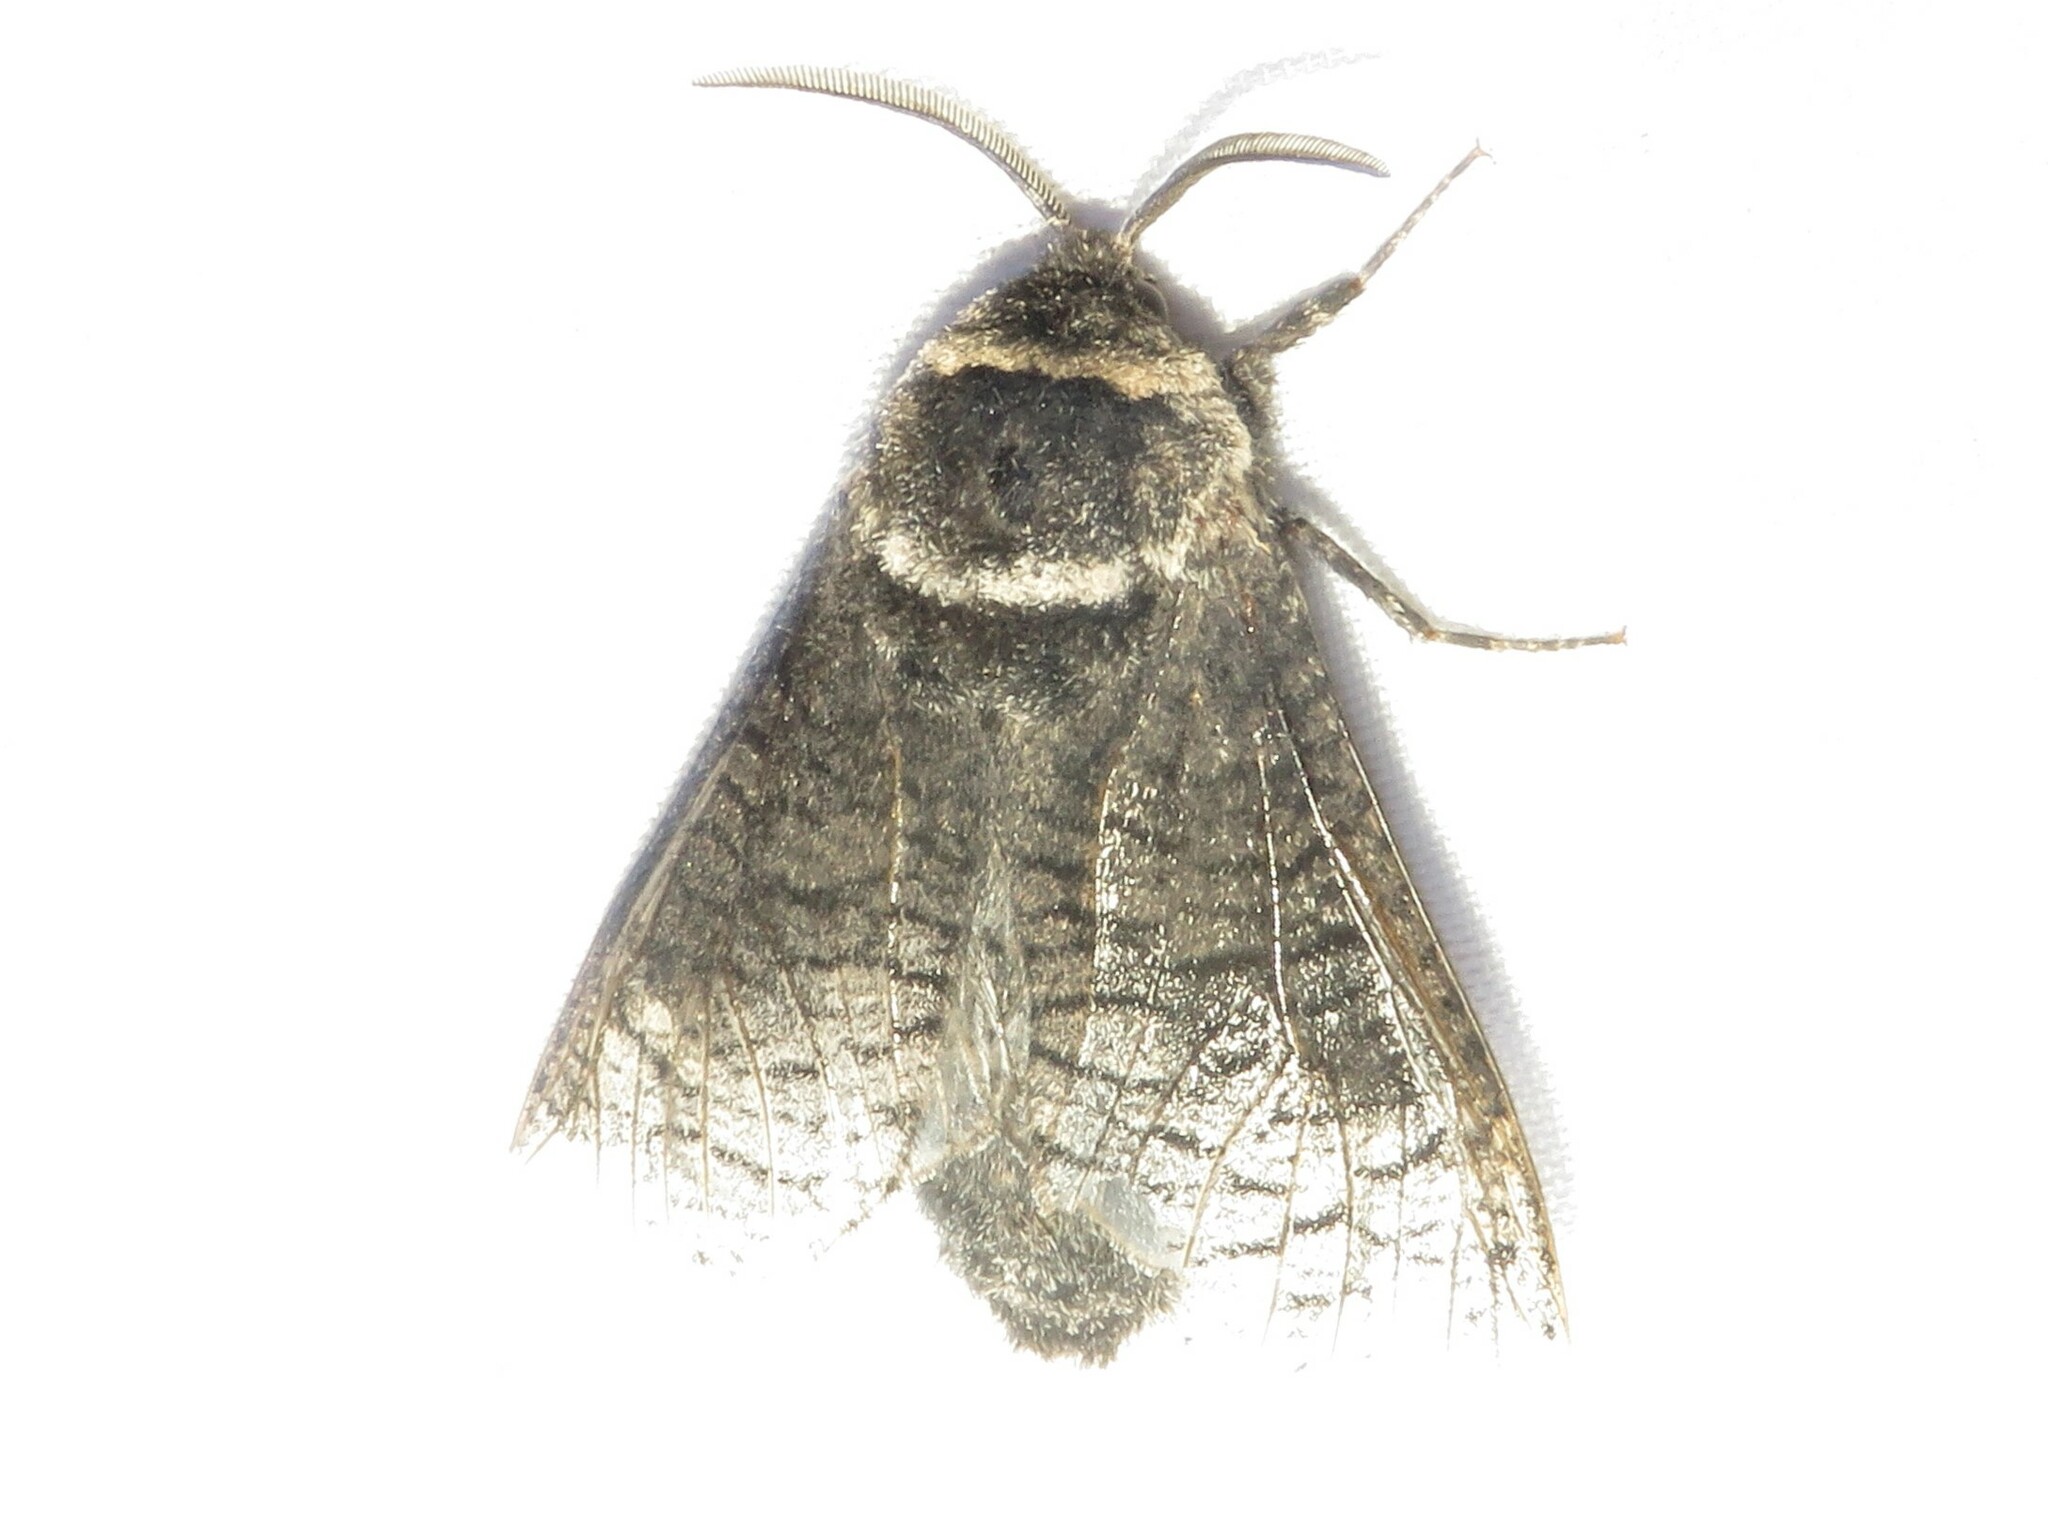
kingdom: Animalia
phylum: Arthropoda
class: Insecta
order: Lepidoptera
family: Cossidae
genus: Acossus
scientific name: Acossus centerensis
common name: Poplar carpenterworm moth
